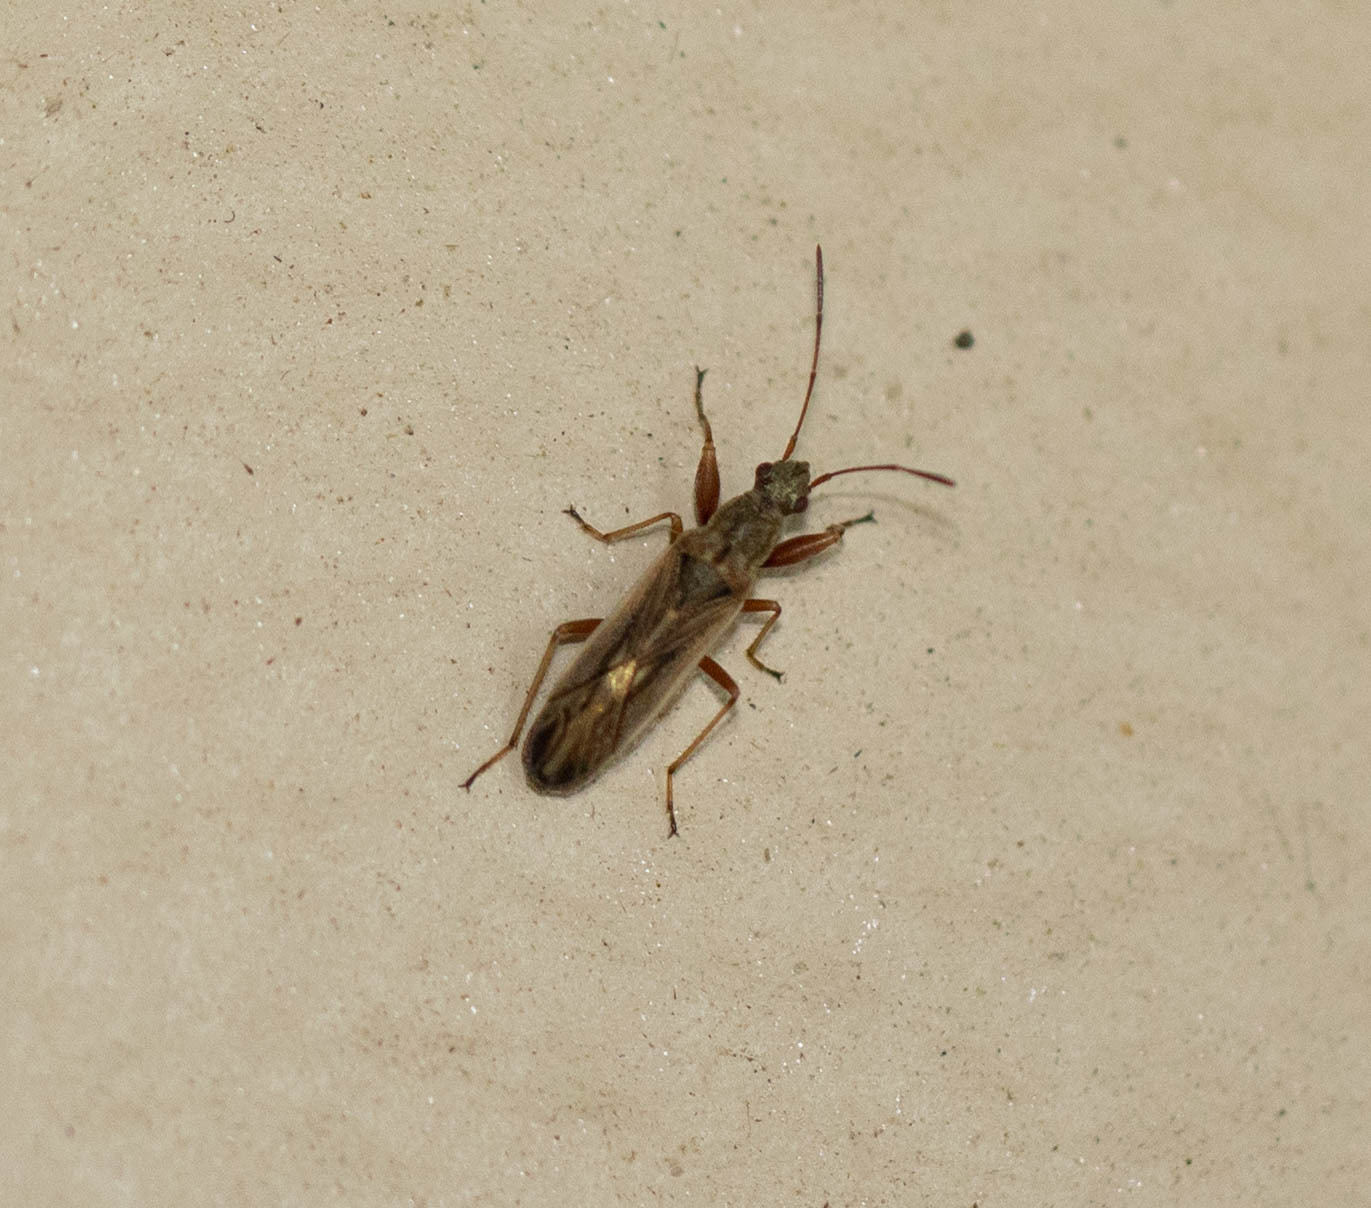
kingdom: Animalia
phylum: Arthropoda
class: Insecta
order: Hemiptera
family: Rhyparochromidae
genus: Paromius
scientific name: Paromius longulus
